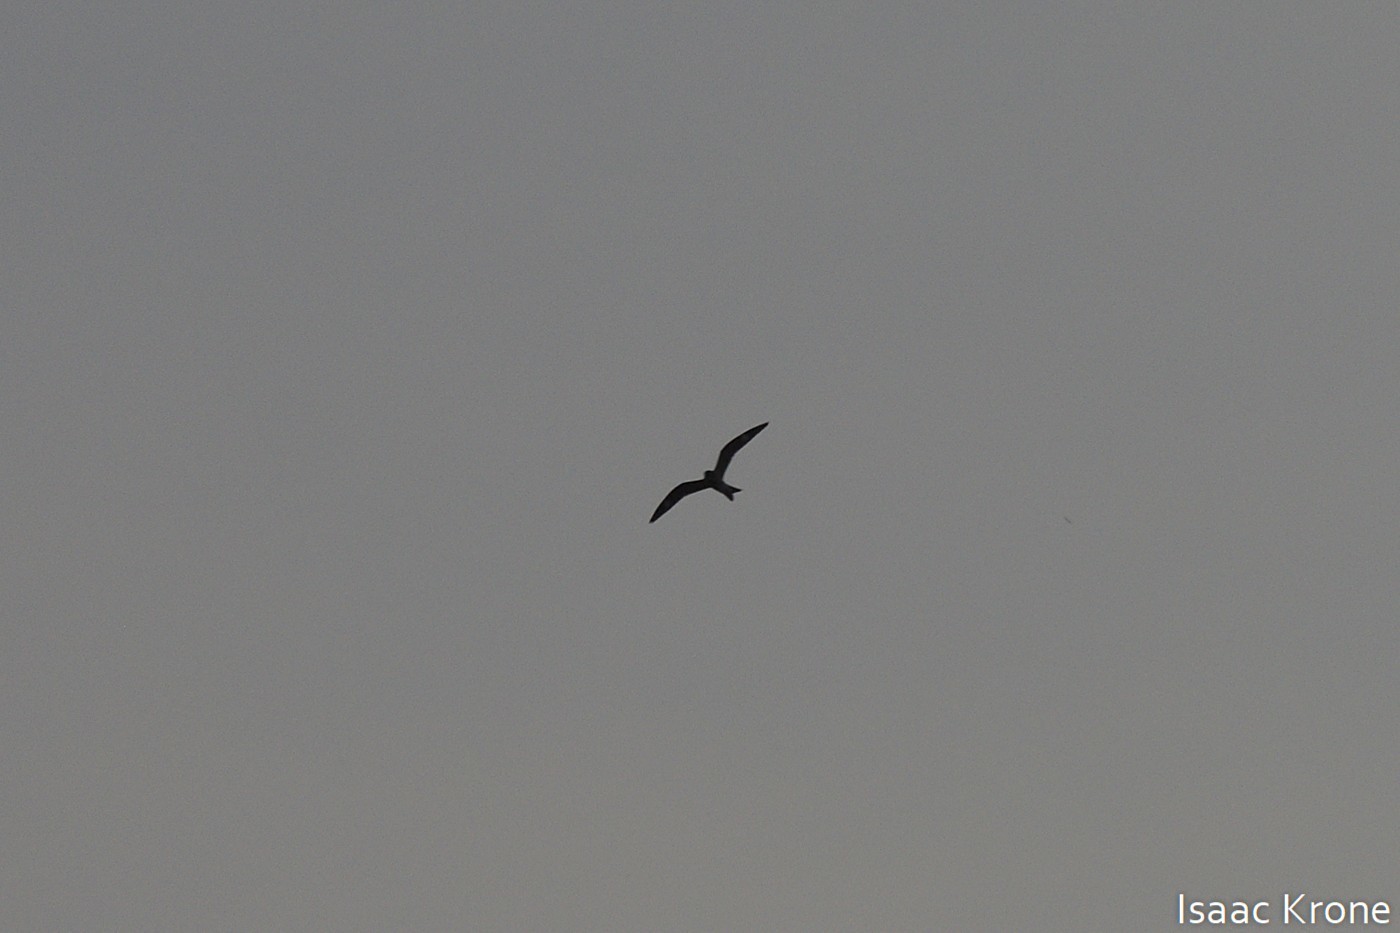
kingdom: Animalia
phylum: Chordata
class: Aves
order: Caprimulgiformes
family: Caprimulgidae
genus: Chordeiles
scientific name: Chordeiles minor
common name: Common nighthawk
